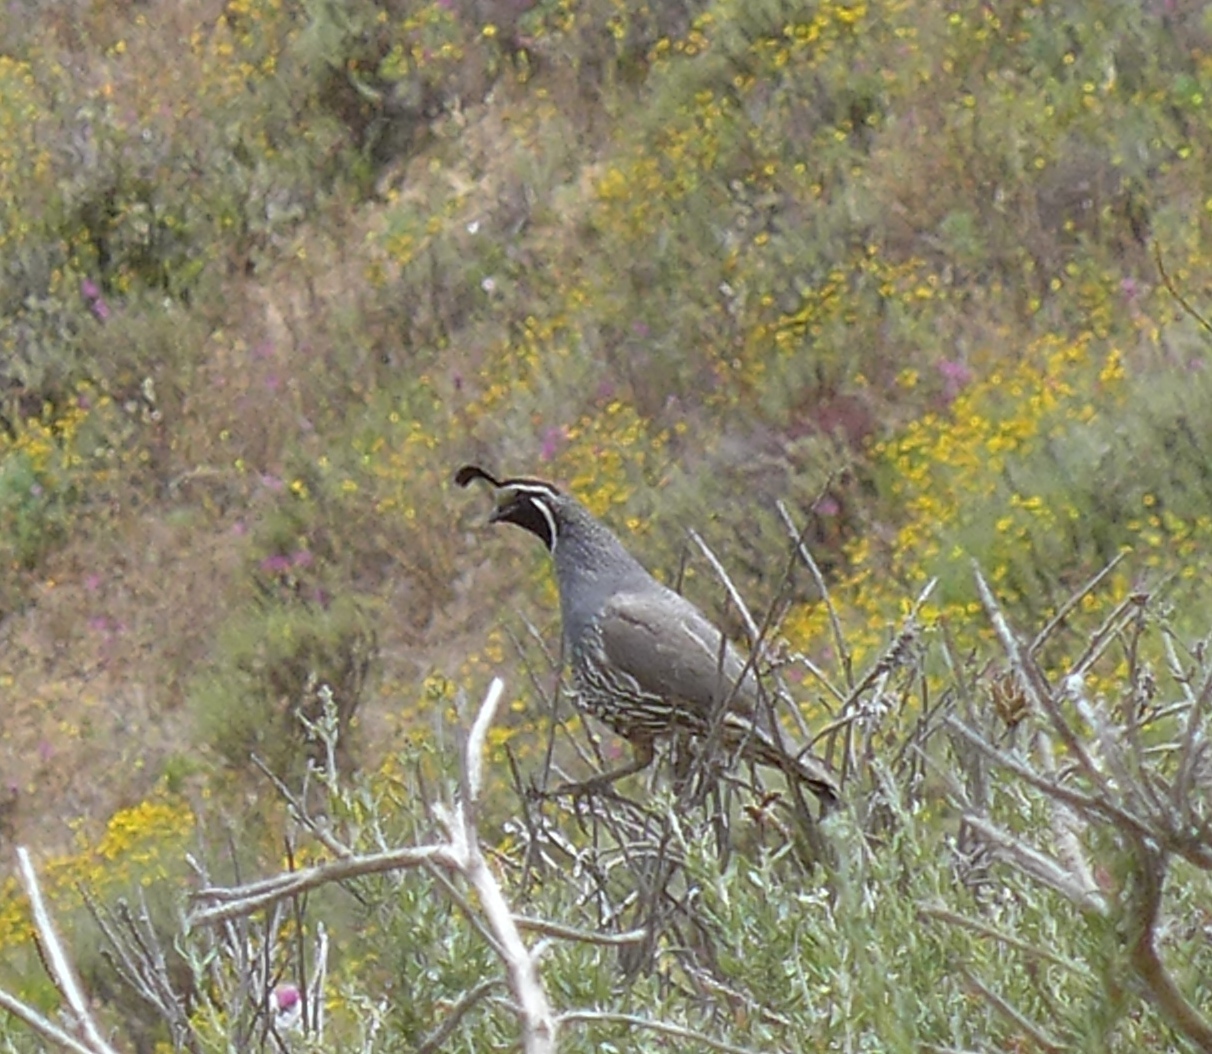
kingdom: Animalia
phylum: Chordata
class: Aves
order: Galliformes
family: Odontophoridae
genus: Callipepla
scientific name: Callipepla californica
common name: California quail
